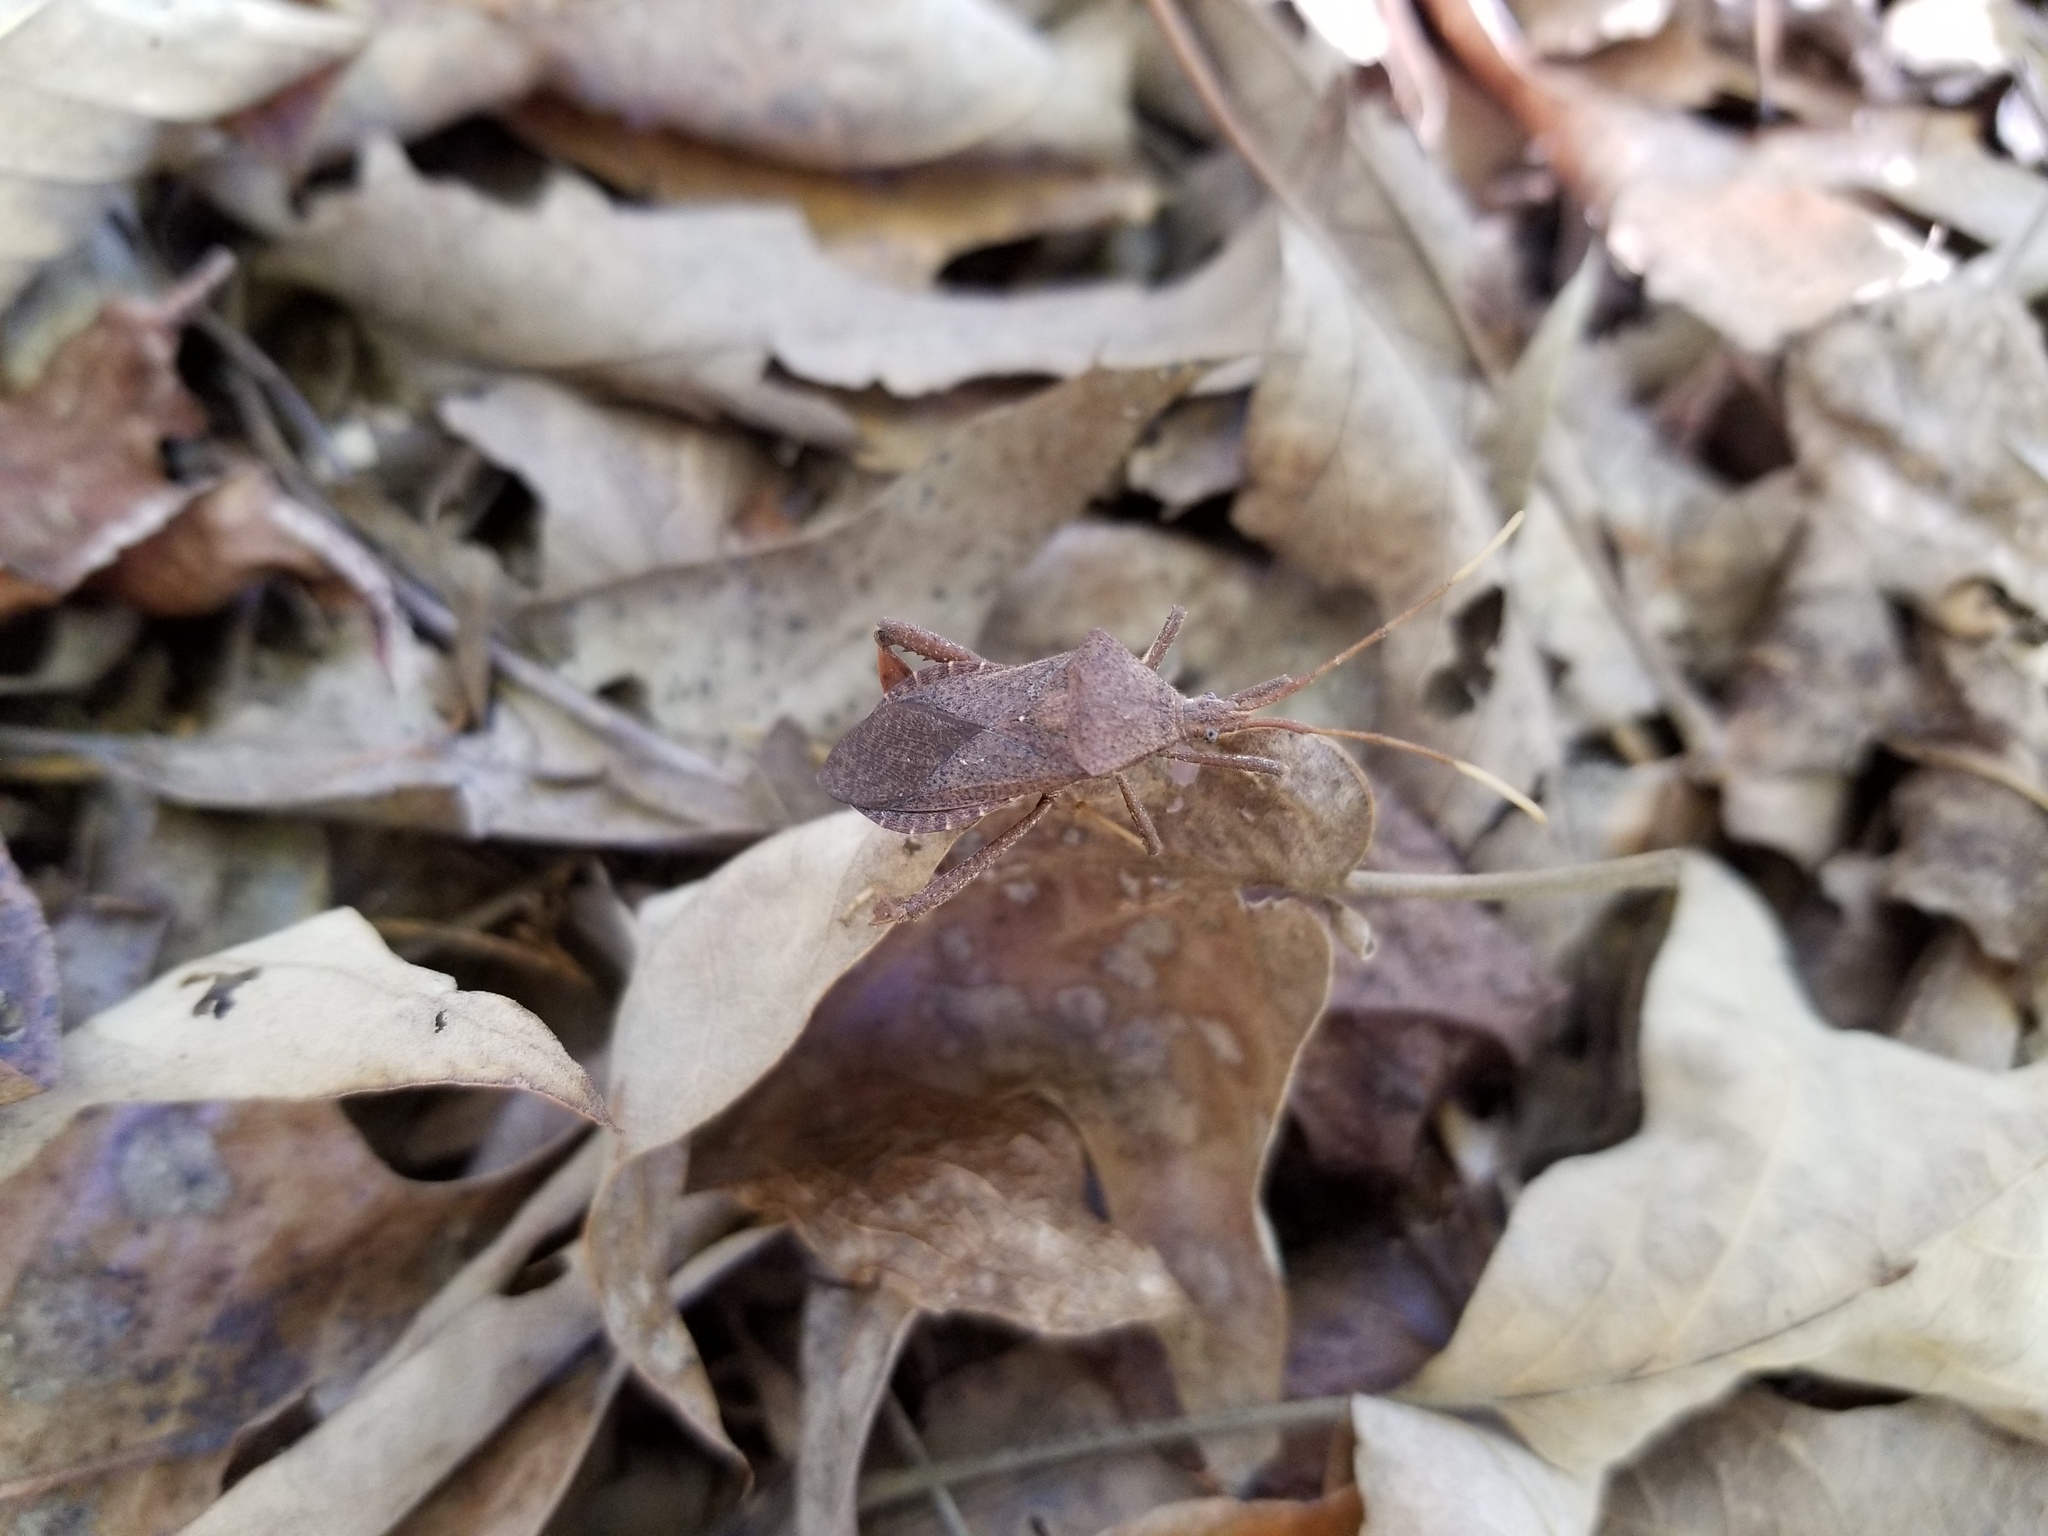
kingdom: Animalia
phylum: Arthropoda
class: Insecta
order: Hemiptera
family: Coreidae
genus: Acanthocephala
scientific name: Acanthocephala terminalis
